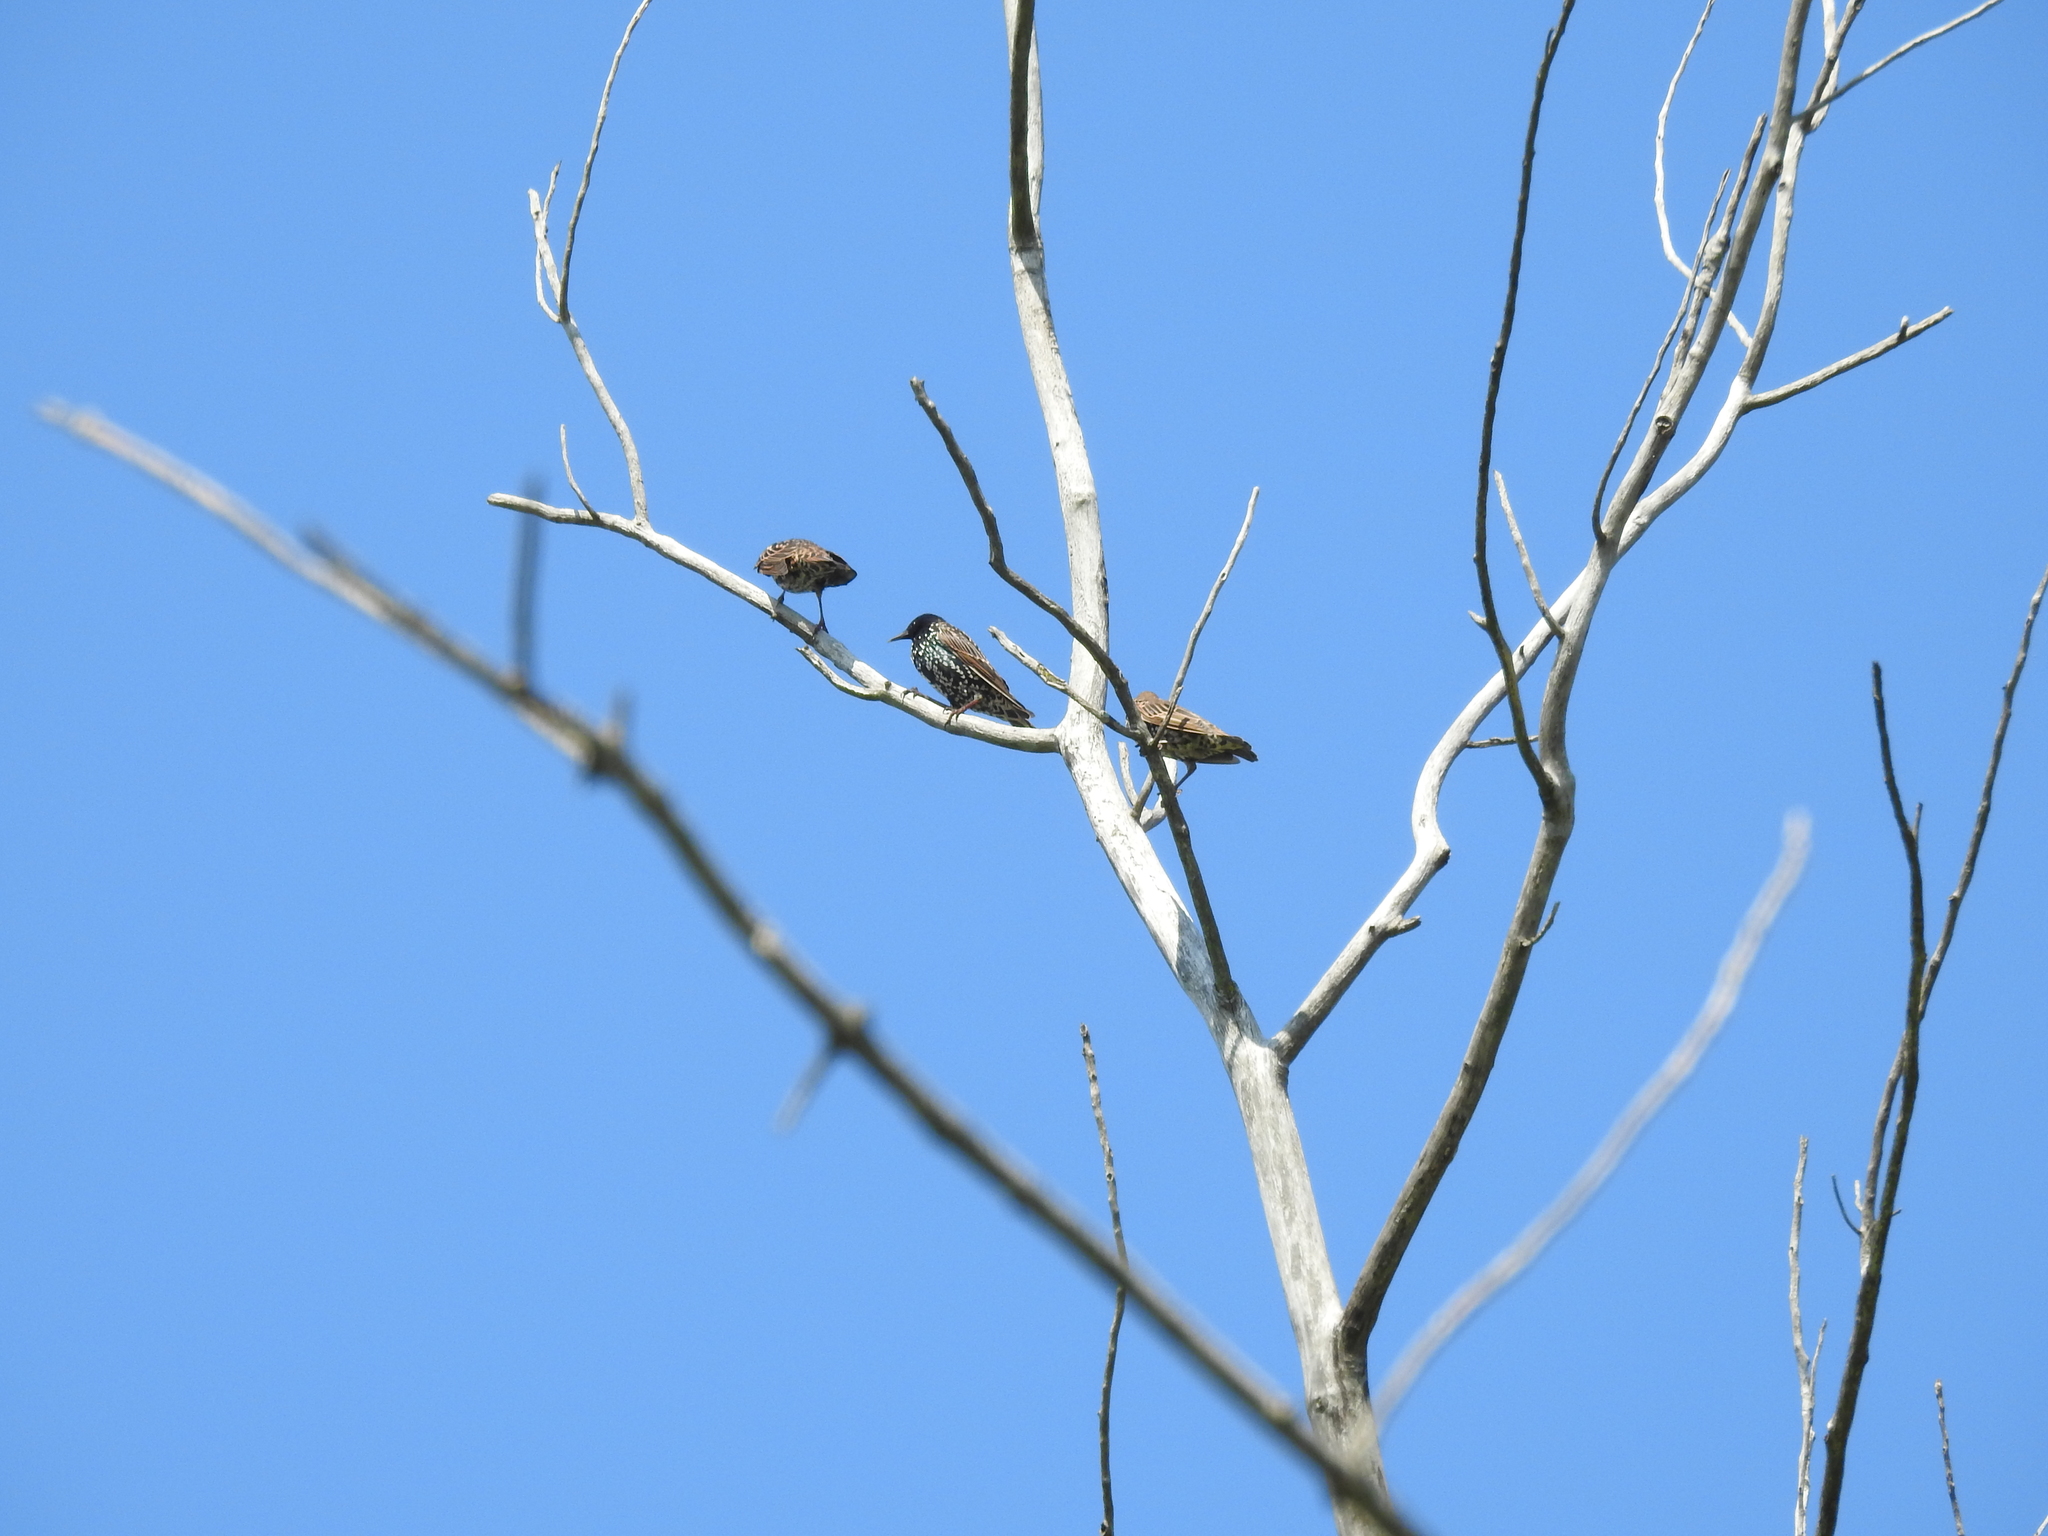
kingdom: Animalia
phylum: Chordata
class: Aves
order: Passeriformes
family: Sturnidae
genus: Sturnus
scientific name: Sturnus vulgaris
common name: Common starling
